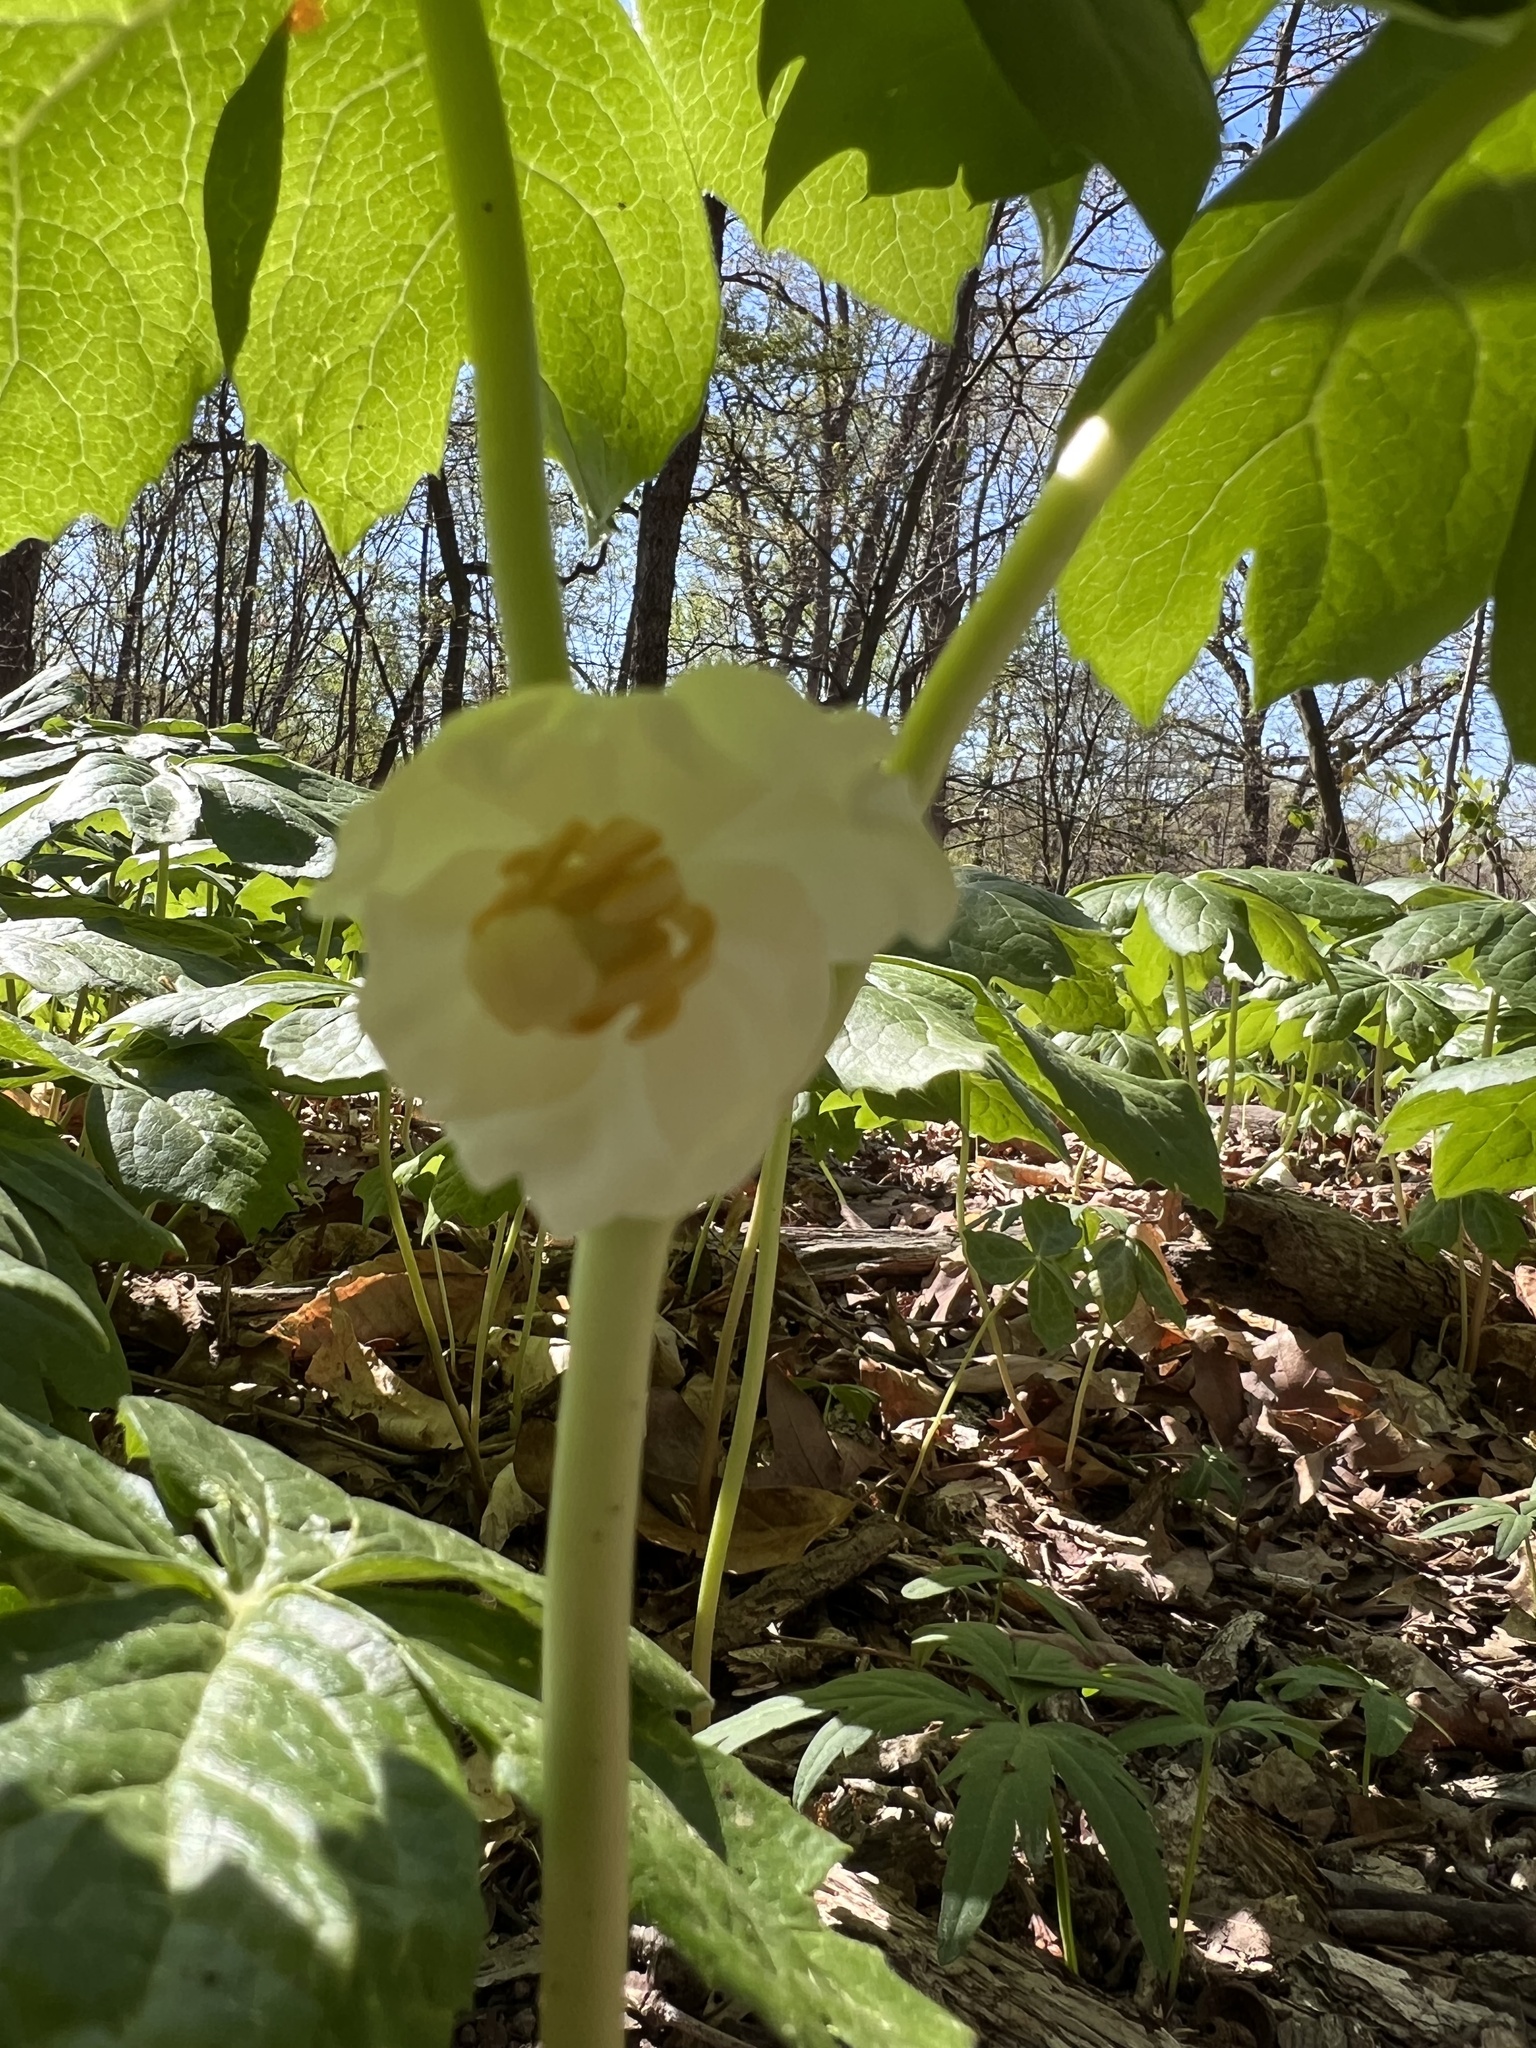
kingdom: Plantae
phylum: Tracheophyta
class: Magnoliopsida
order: Ranunculales
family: Berberidaceae
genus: Podophyllum
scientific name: Podophyllum peltatum
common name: Wild mandrake
